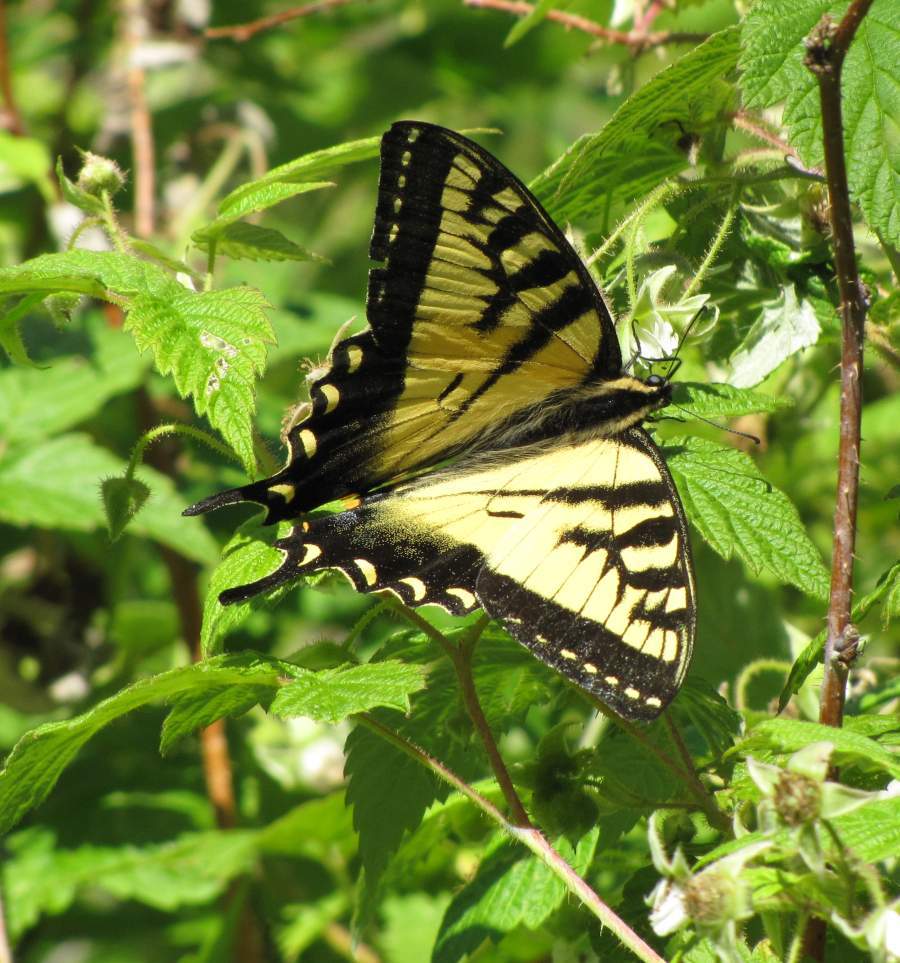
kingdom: Animalia
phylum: Arthropoda
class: Insecta
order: Lepidoptera
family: Papilionidae
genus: Papilio
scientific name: Papilio canadensis
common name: Canadian tiger swallowtail
